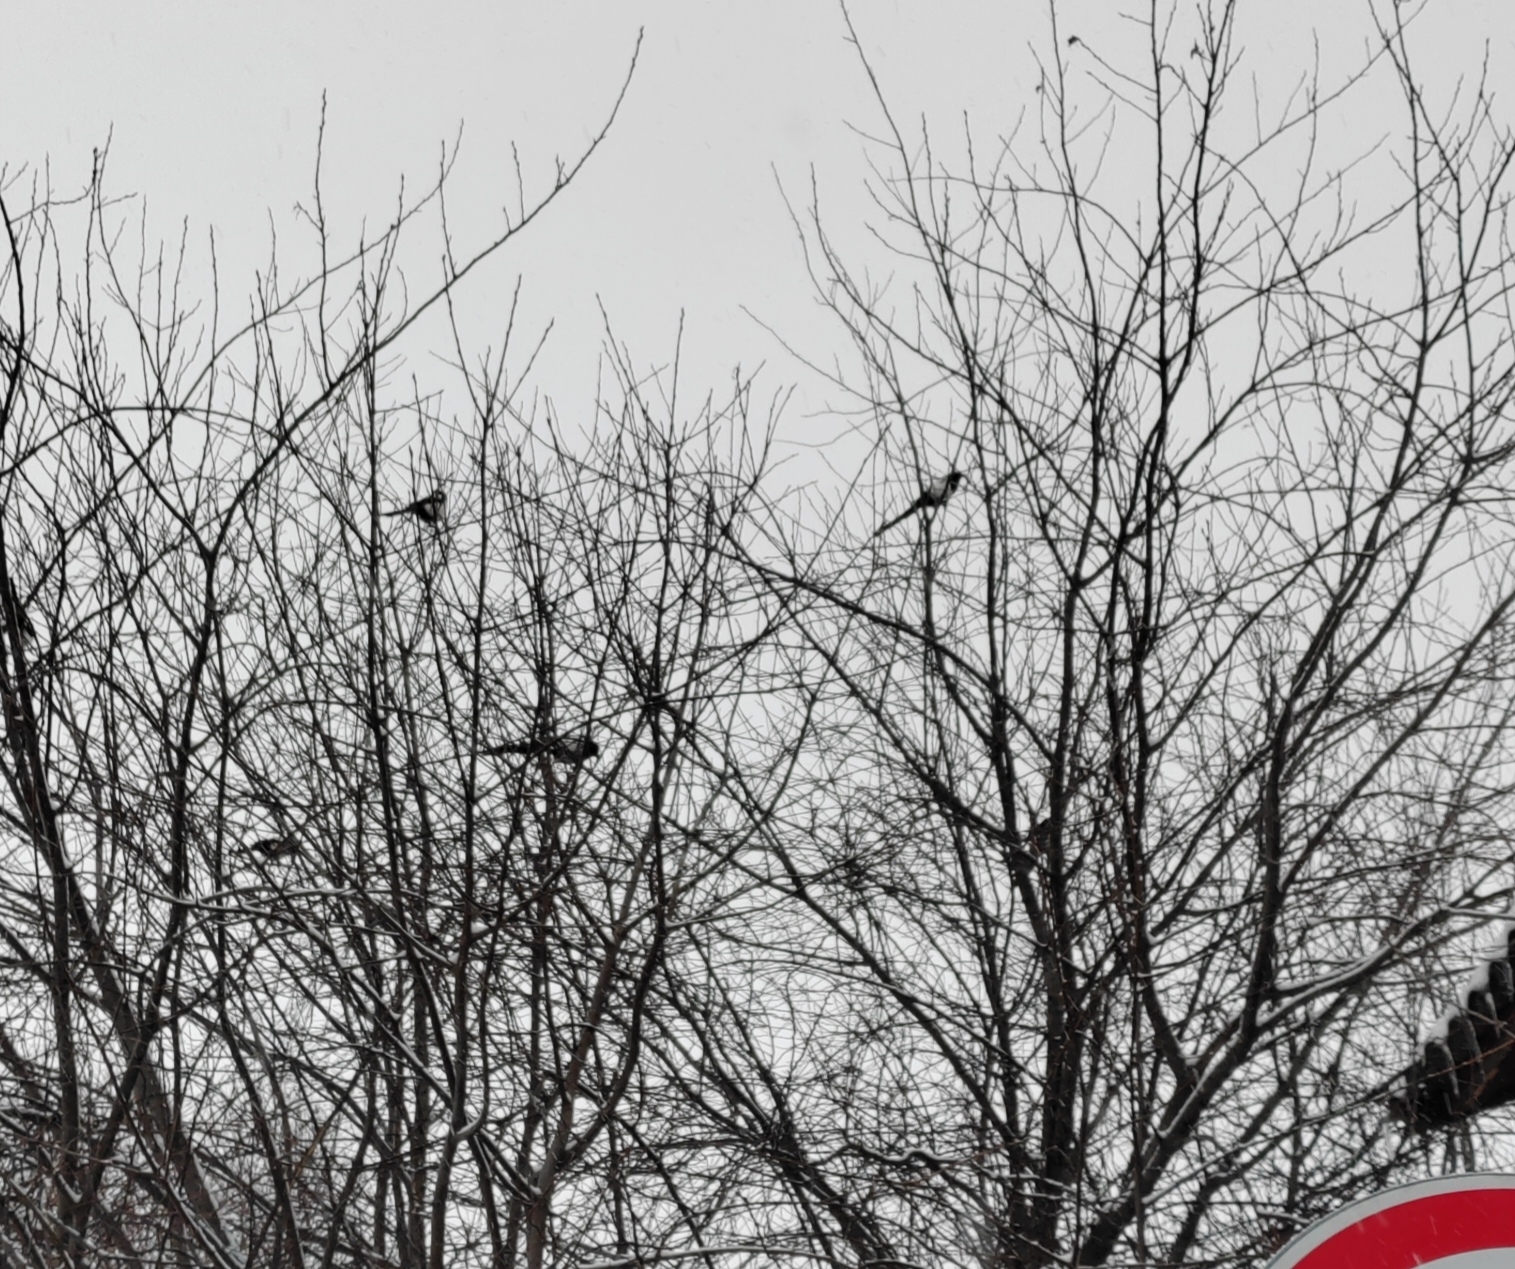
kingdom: Animalia
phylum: Chordata
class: Aves
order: Passeriformes
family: Corvidae
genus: Pica
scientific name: Pica pica
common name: Eurasian magpie
